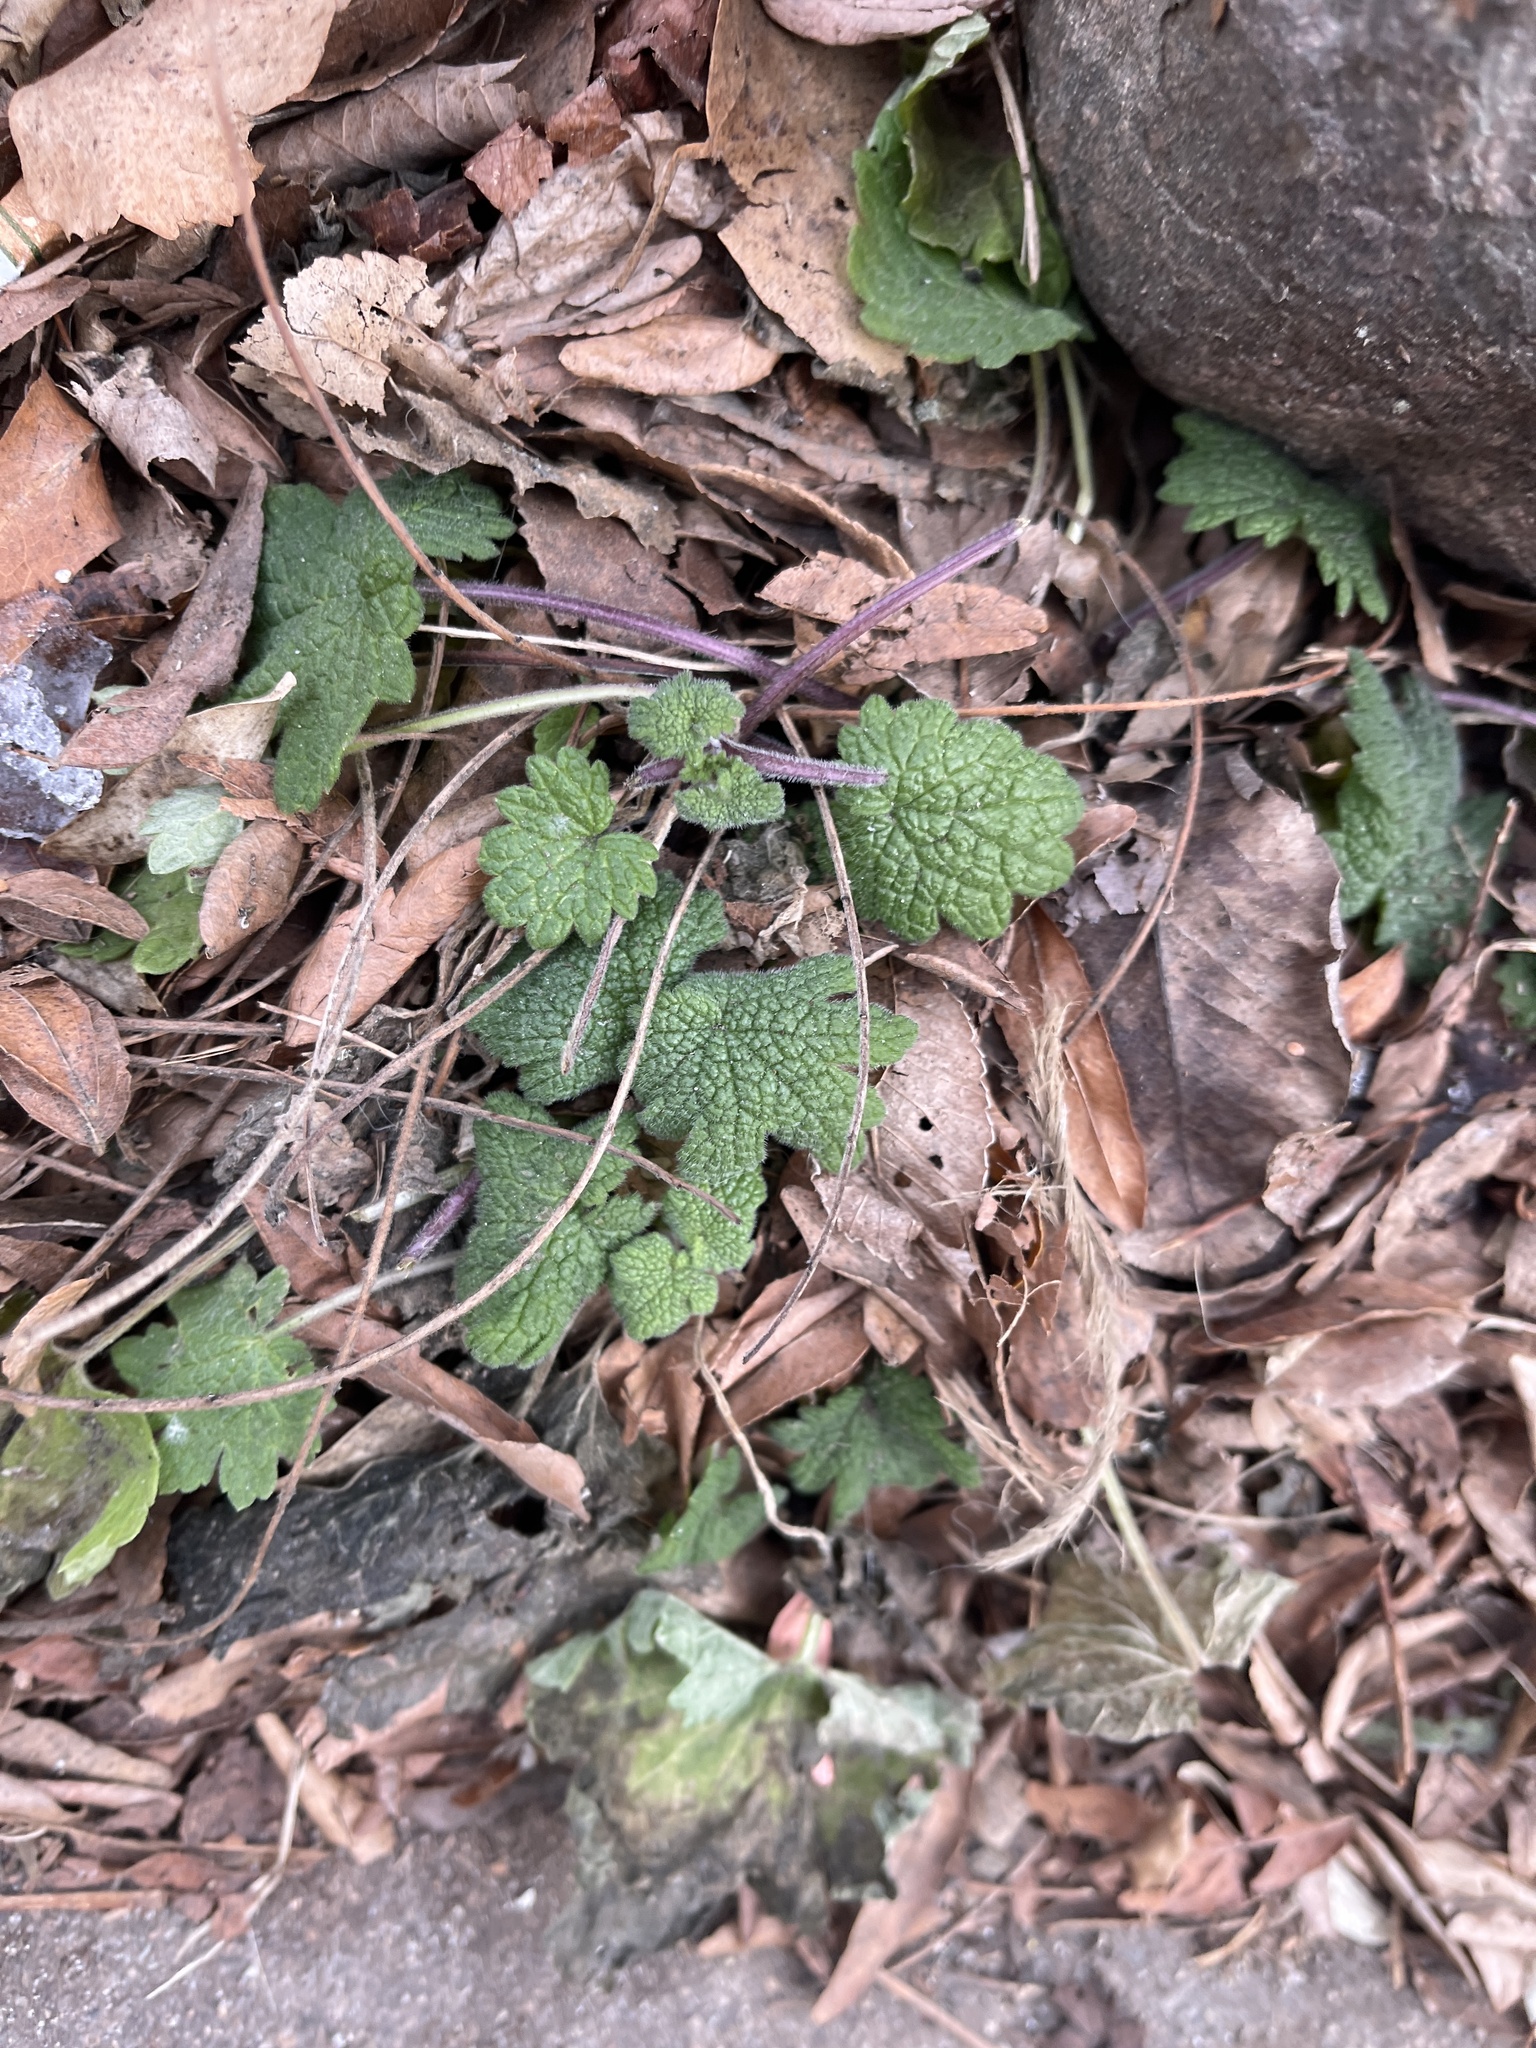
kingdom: Plantae
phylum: Tracheophyta
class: Magnoliopsida
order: Lamiales
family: Lamiaceae
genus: Leonurus
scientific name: Leonurus cardiaca
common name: Motherwort
